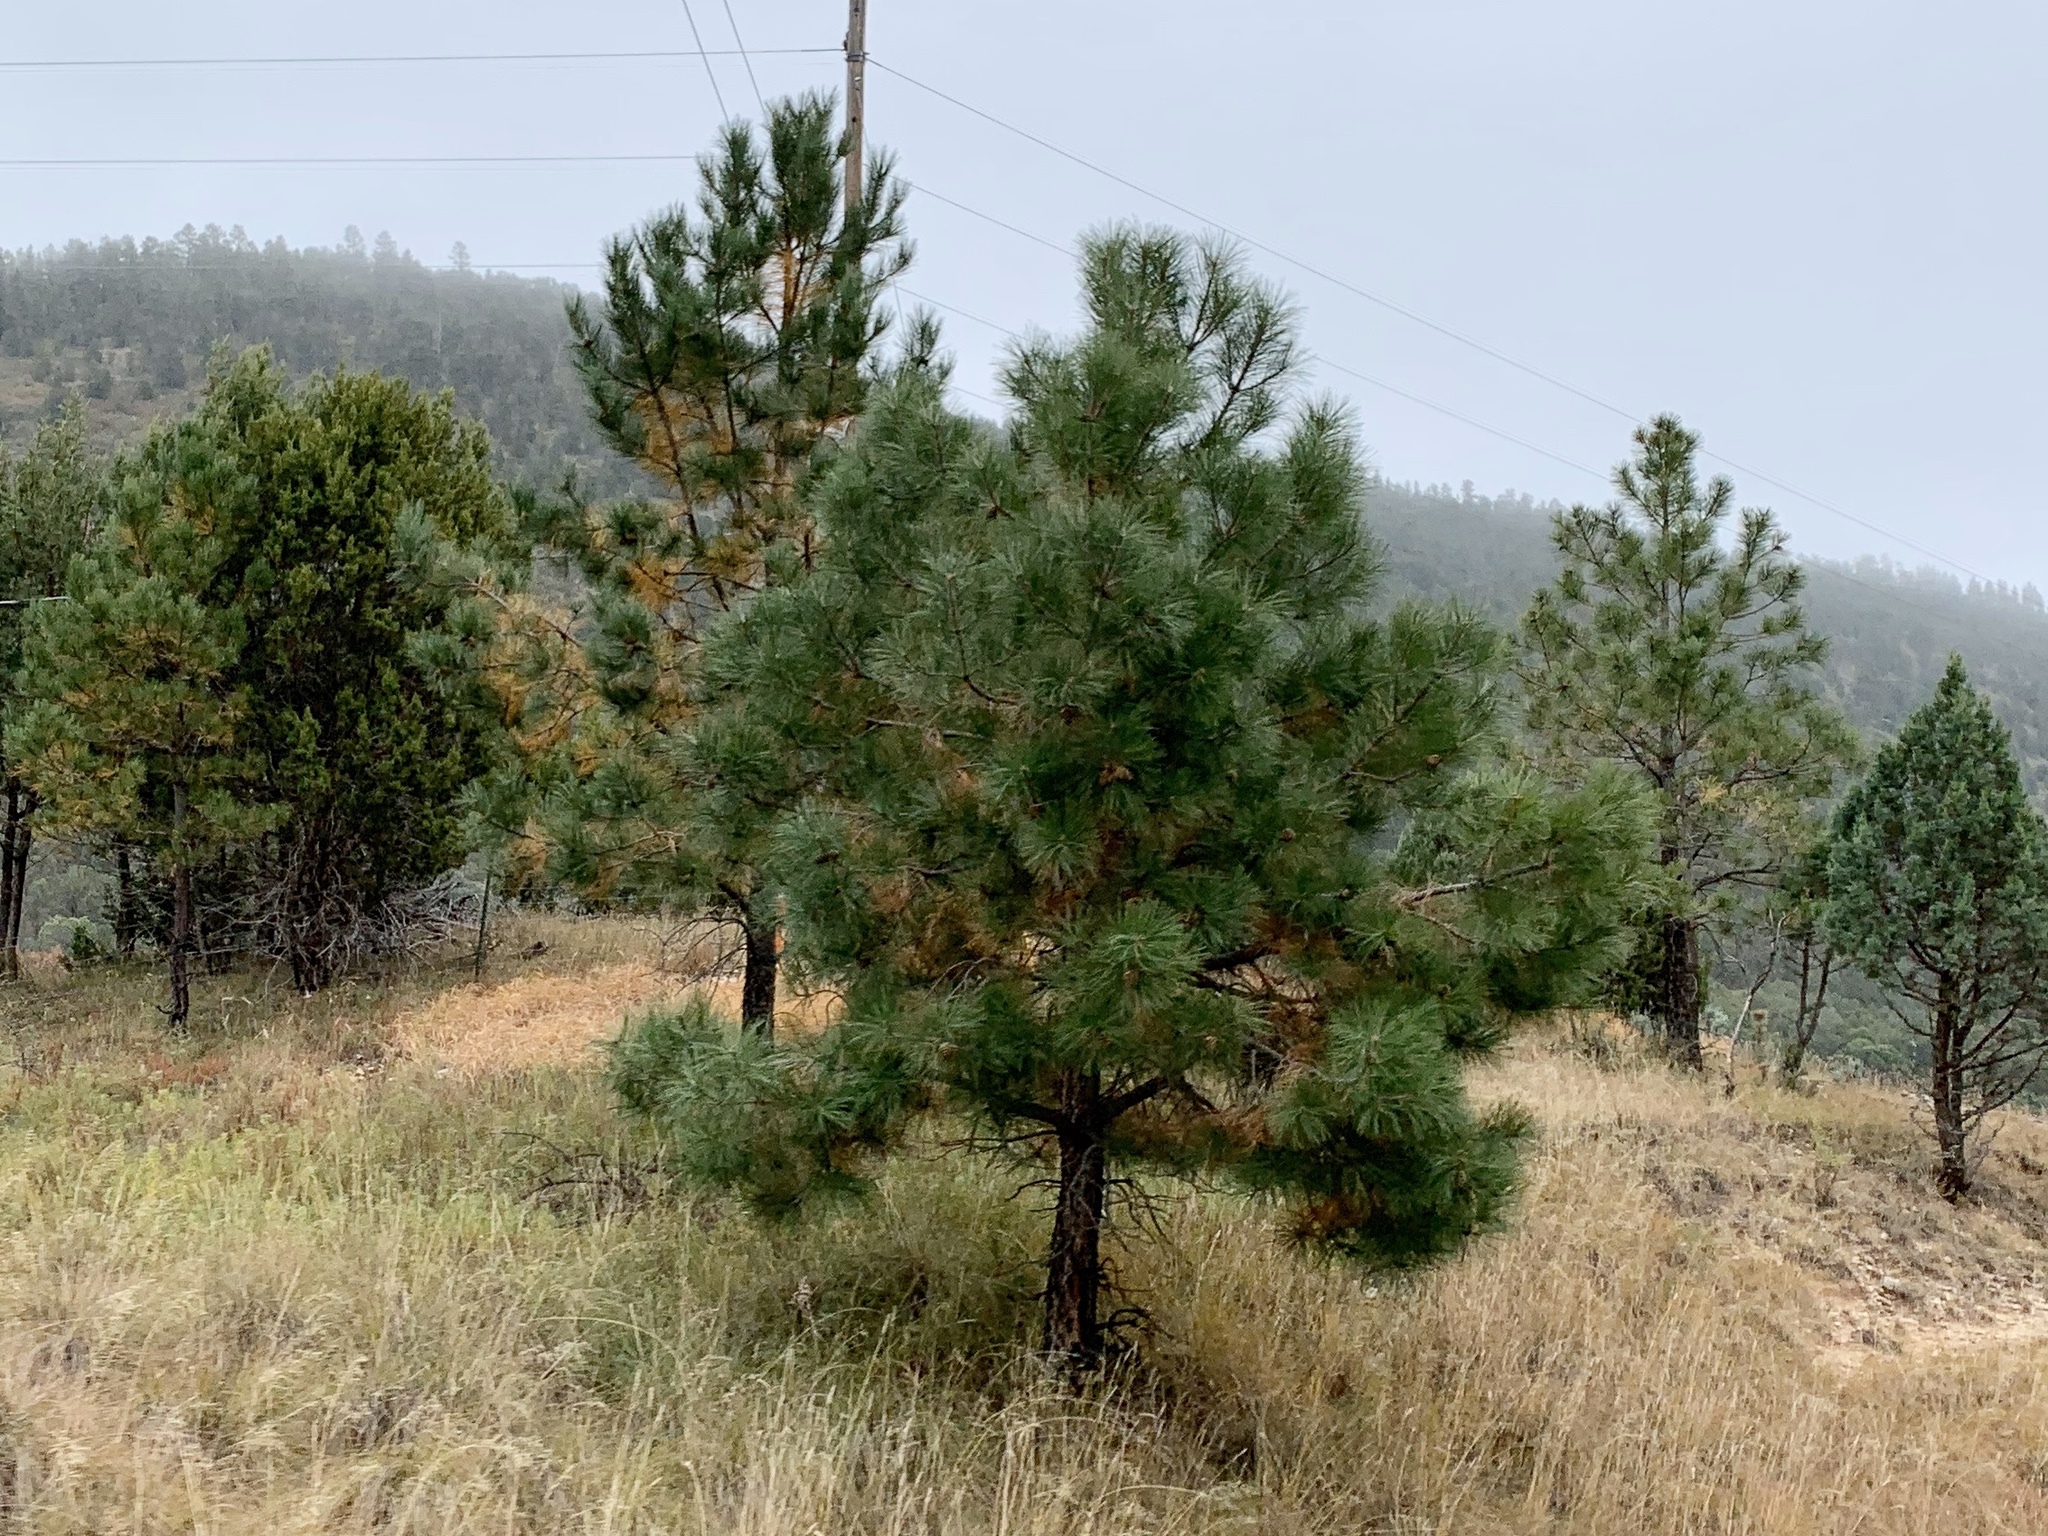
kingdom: Plantae
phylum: Tracheophyta
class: Pinopsida
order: Pinales
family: Pinaceae
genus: Pinus
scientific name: Pinus ponderosa
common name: Western yellow-pine
